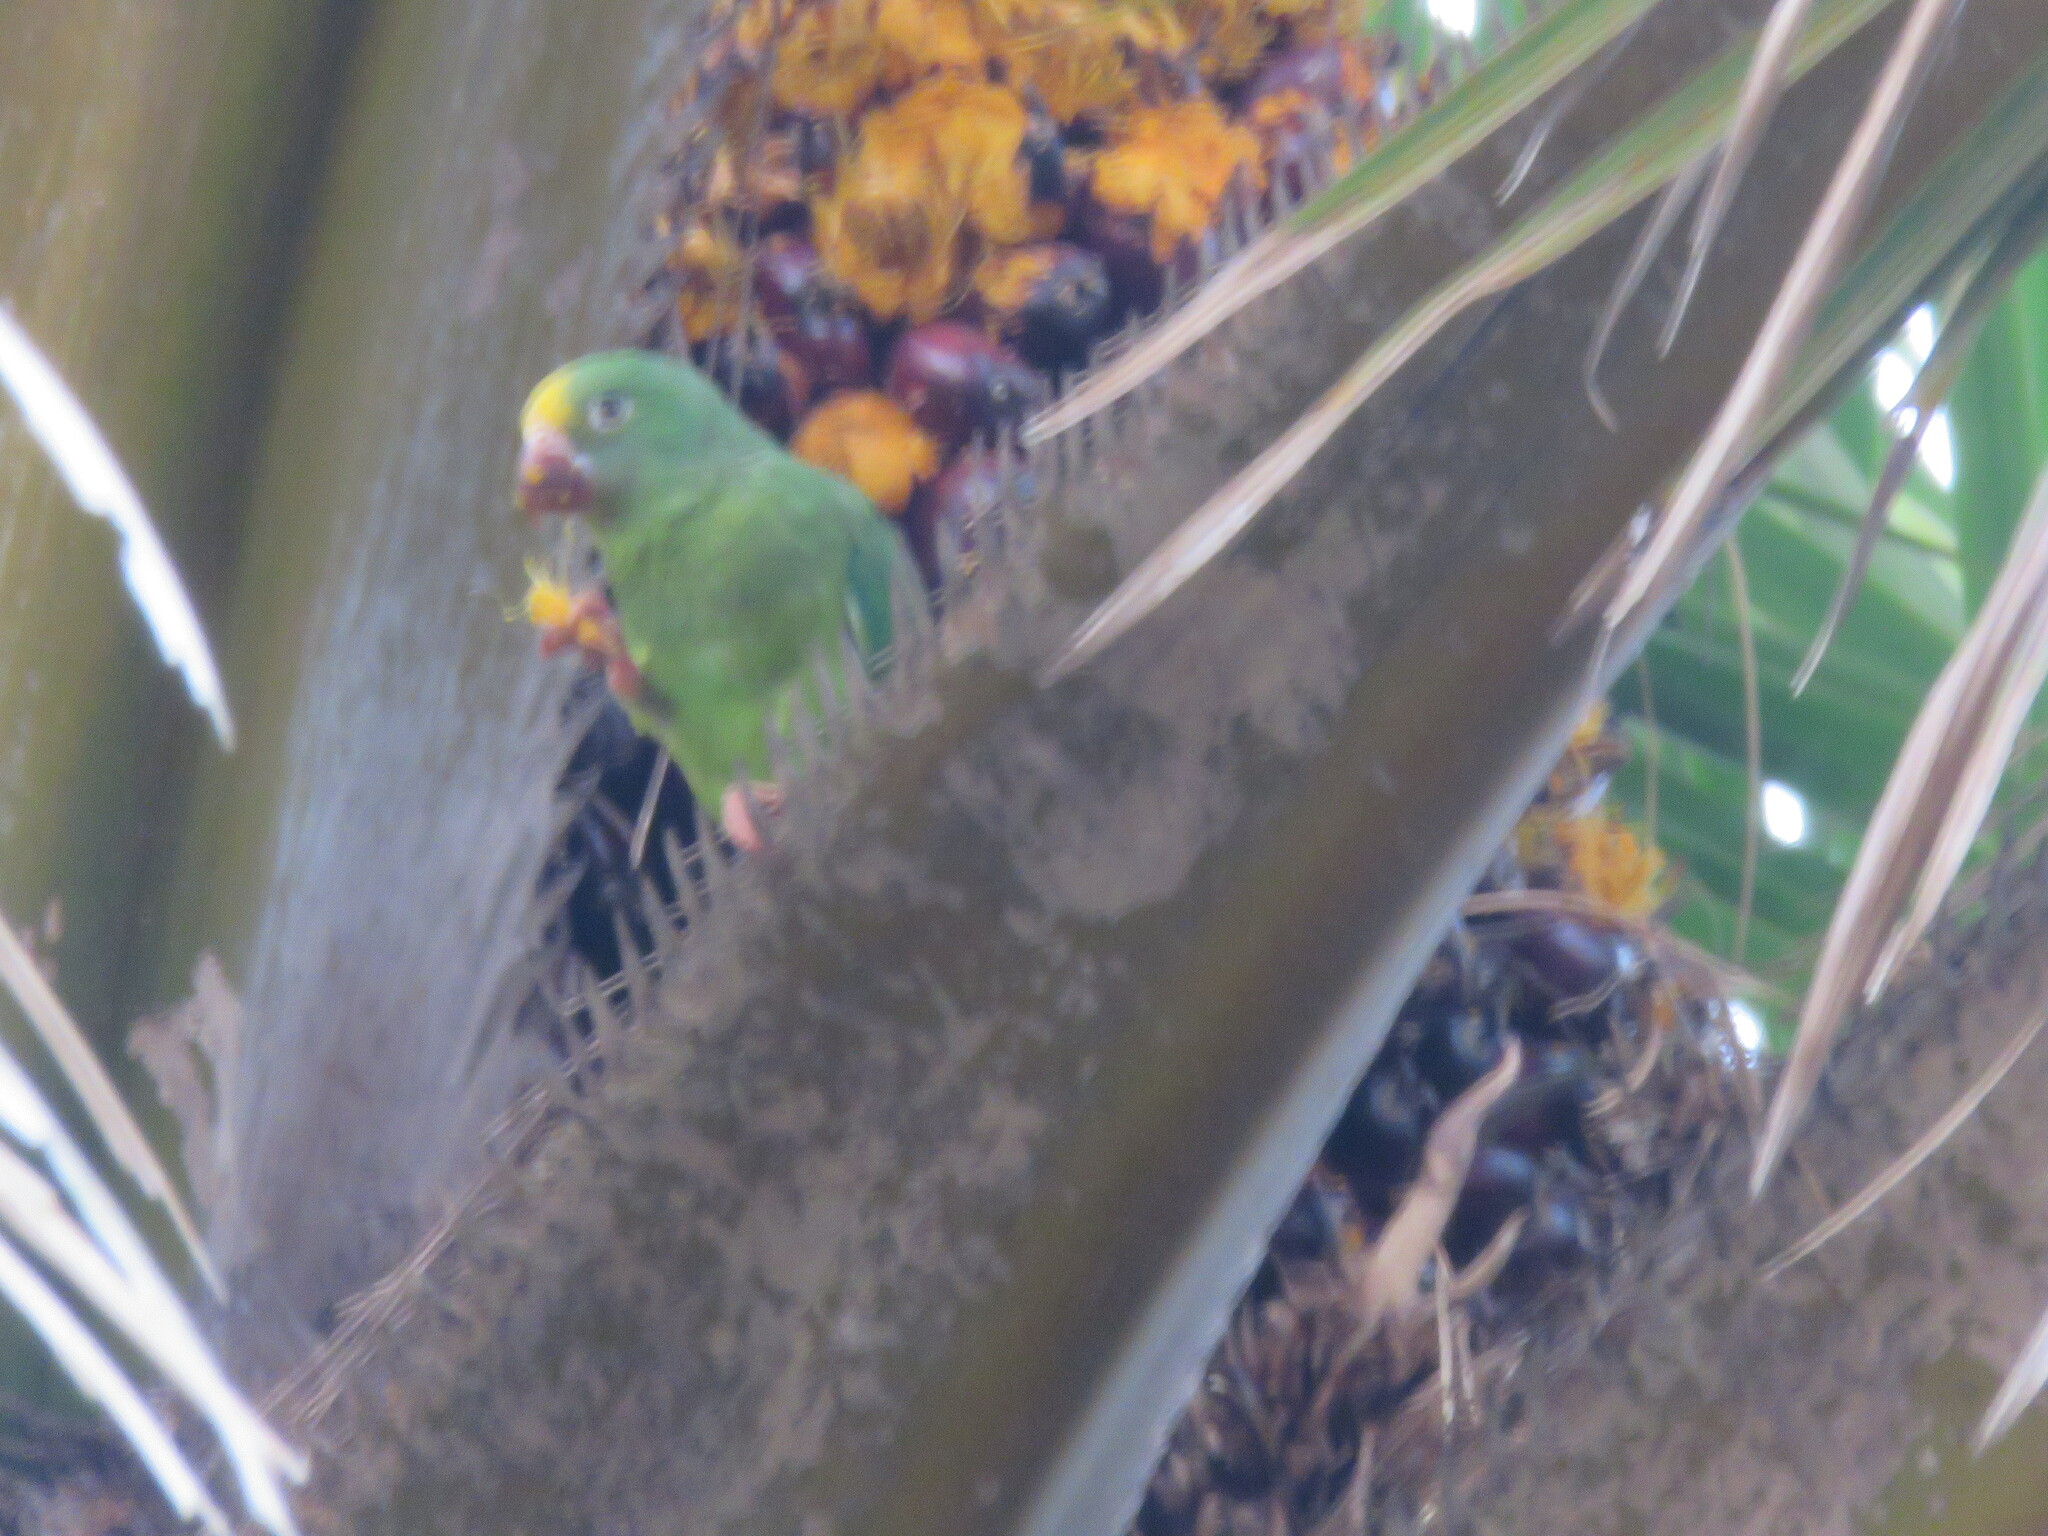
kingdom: Animalia
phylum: Chordata
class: Aves
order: Psittaciformes
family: Psittacidae
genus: Brotogeris
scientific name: Brotogeris sanctithomae
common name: Tui parakeet
